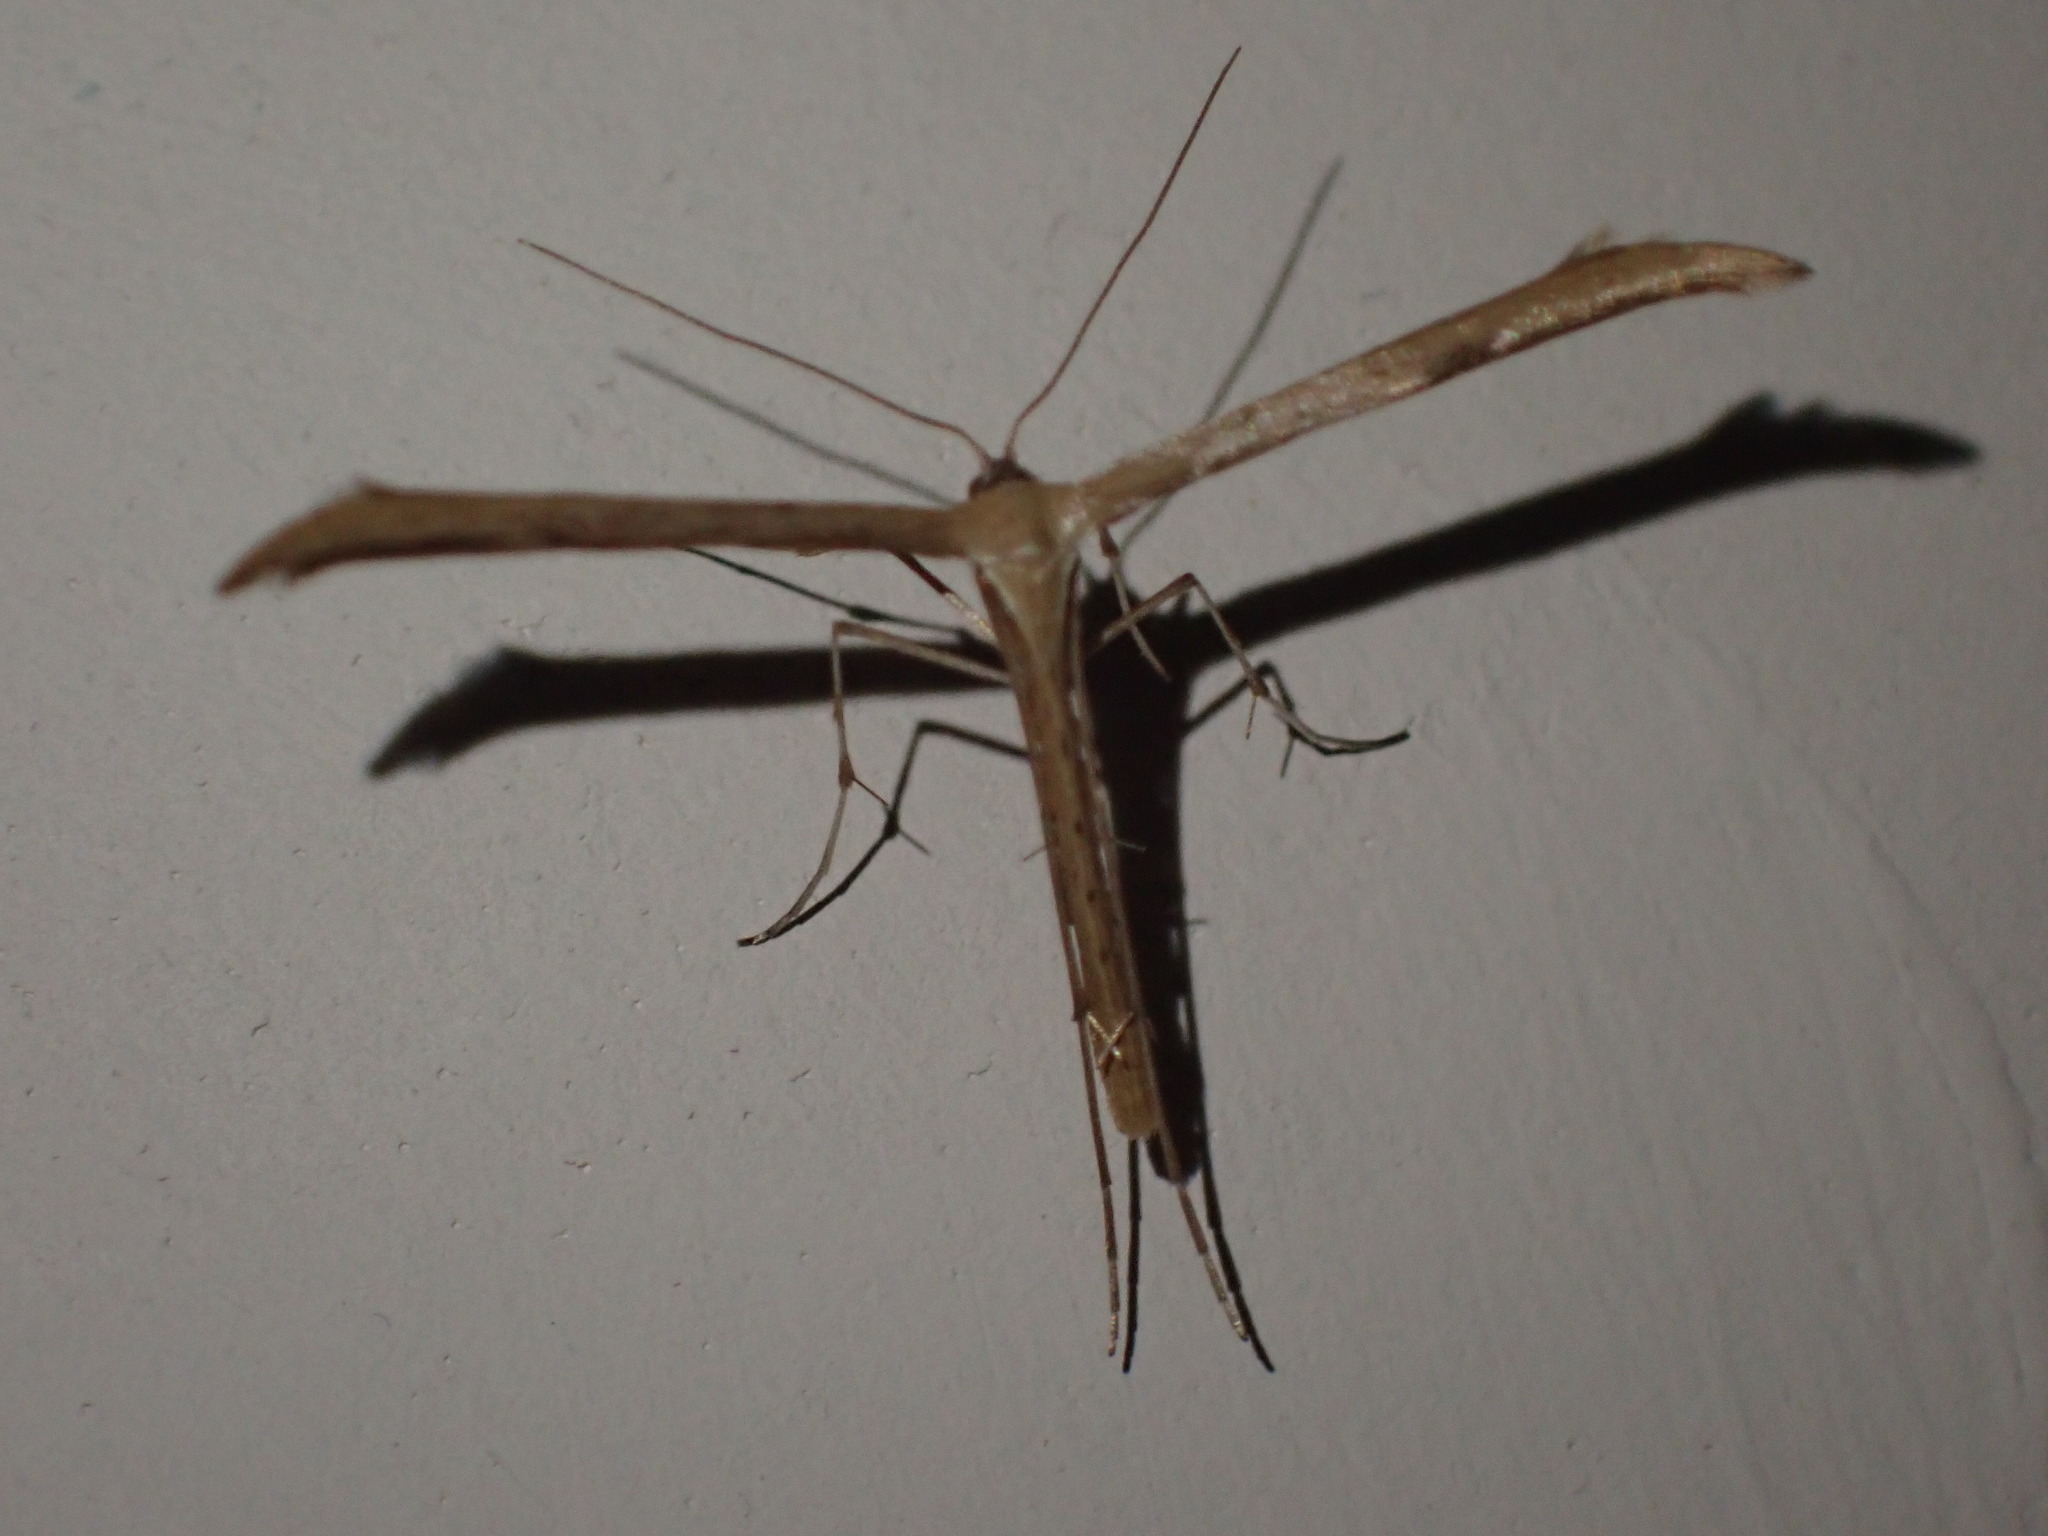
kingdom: Animalia
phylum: Arthropoda
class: Insecta
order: Lepidoptera
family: Pterophoridae
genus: Emmelina
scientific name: Emmelina monodactyla
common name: Common plume
